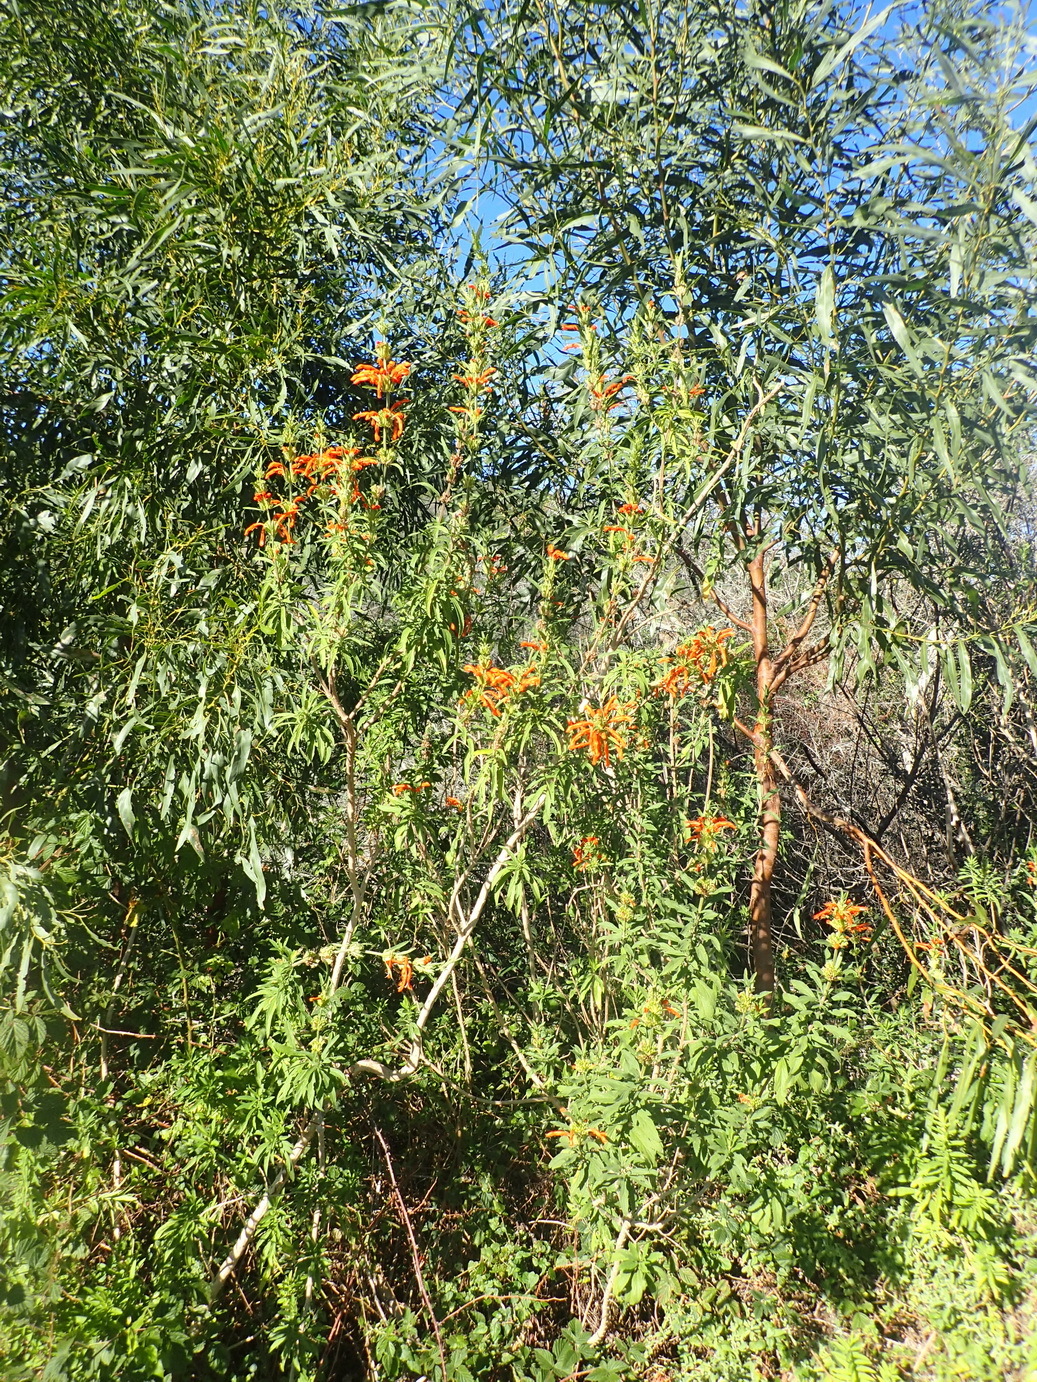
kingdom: Plantae
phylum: Tracheophyta
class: Magnoliopsida
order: Lamiales
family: Lamiaceae
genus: Leonotis
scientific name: Leonotis leonurus
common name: Lion's ear
